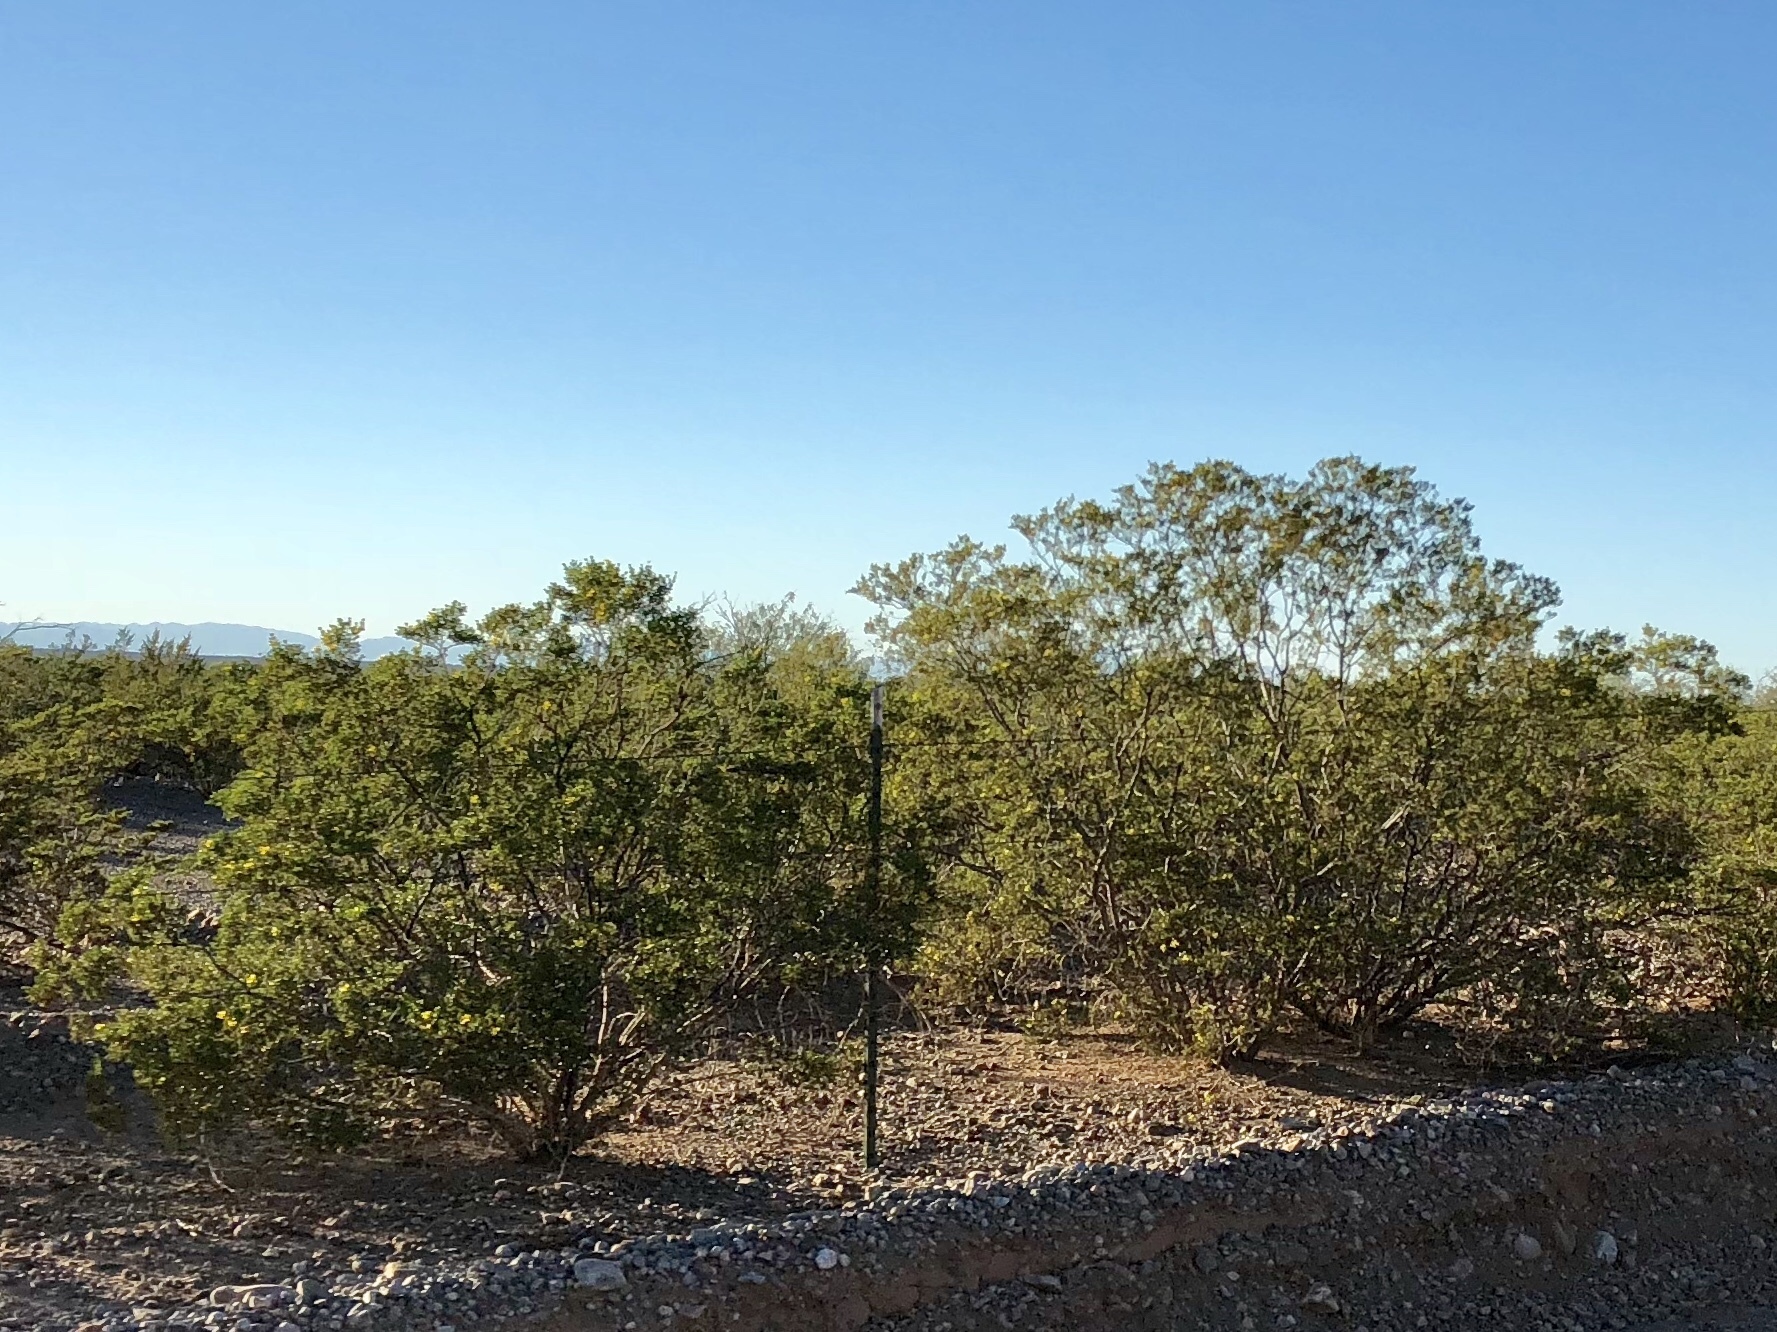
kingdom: Plantae
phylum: Tracheophyta
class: Magnoliopsida
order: Zygophyllales
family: Zygophyllaceae
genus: Larrea
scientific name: Larrea tridentata
